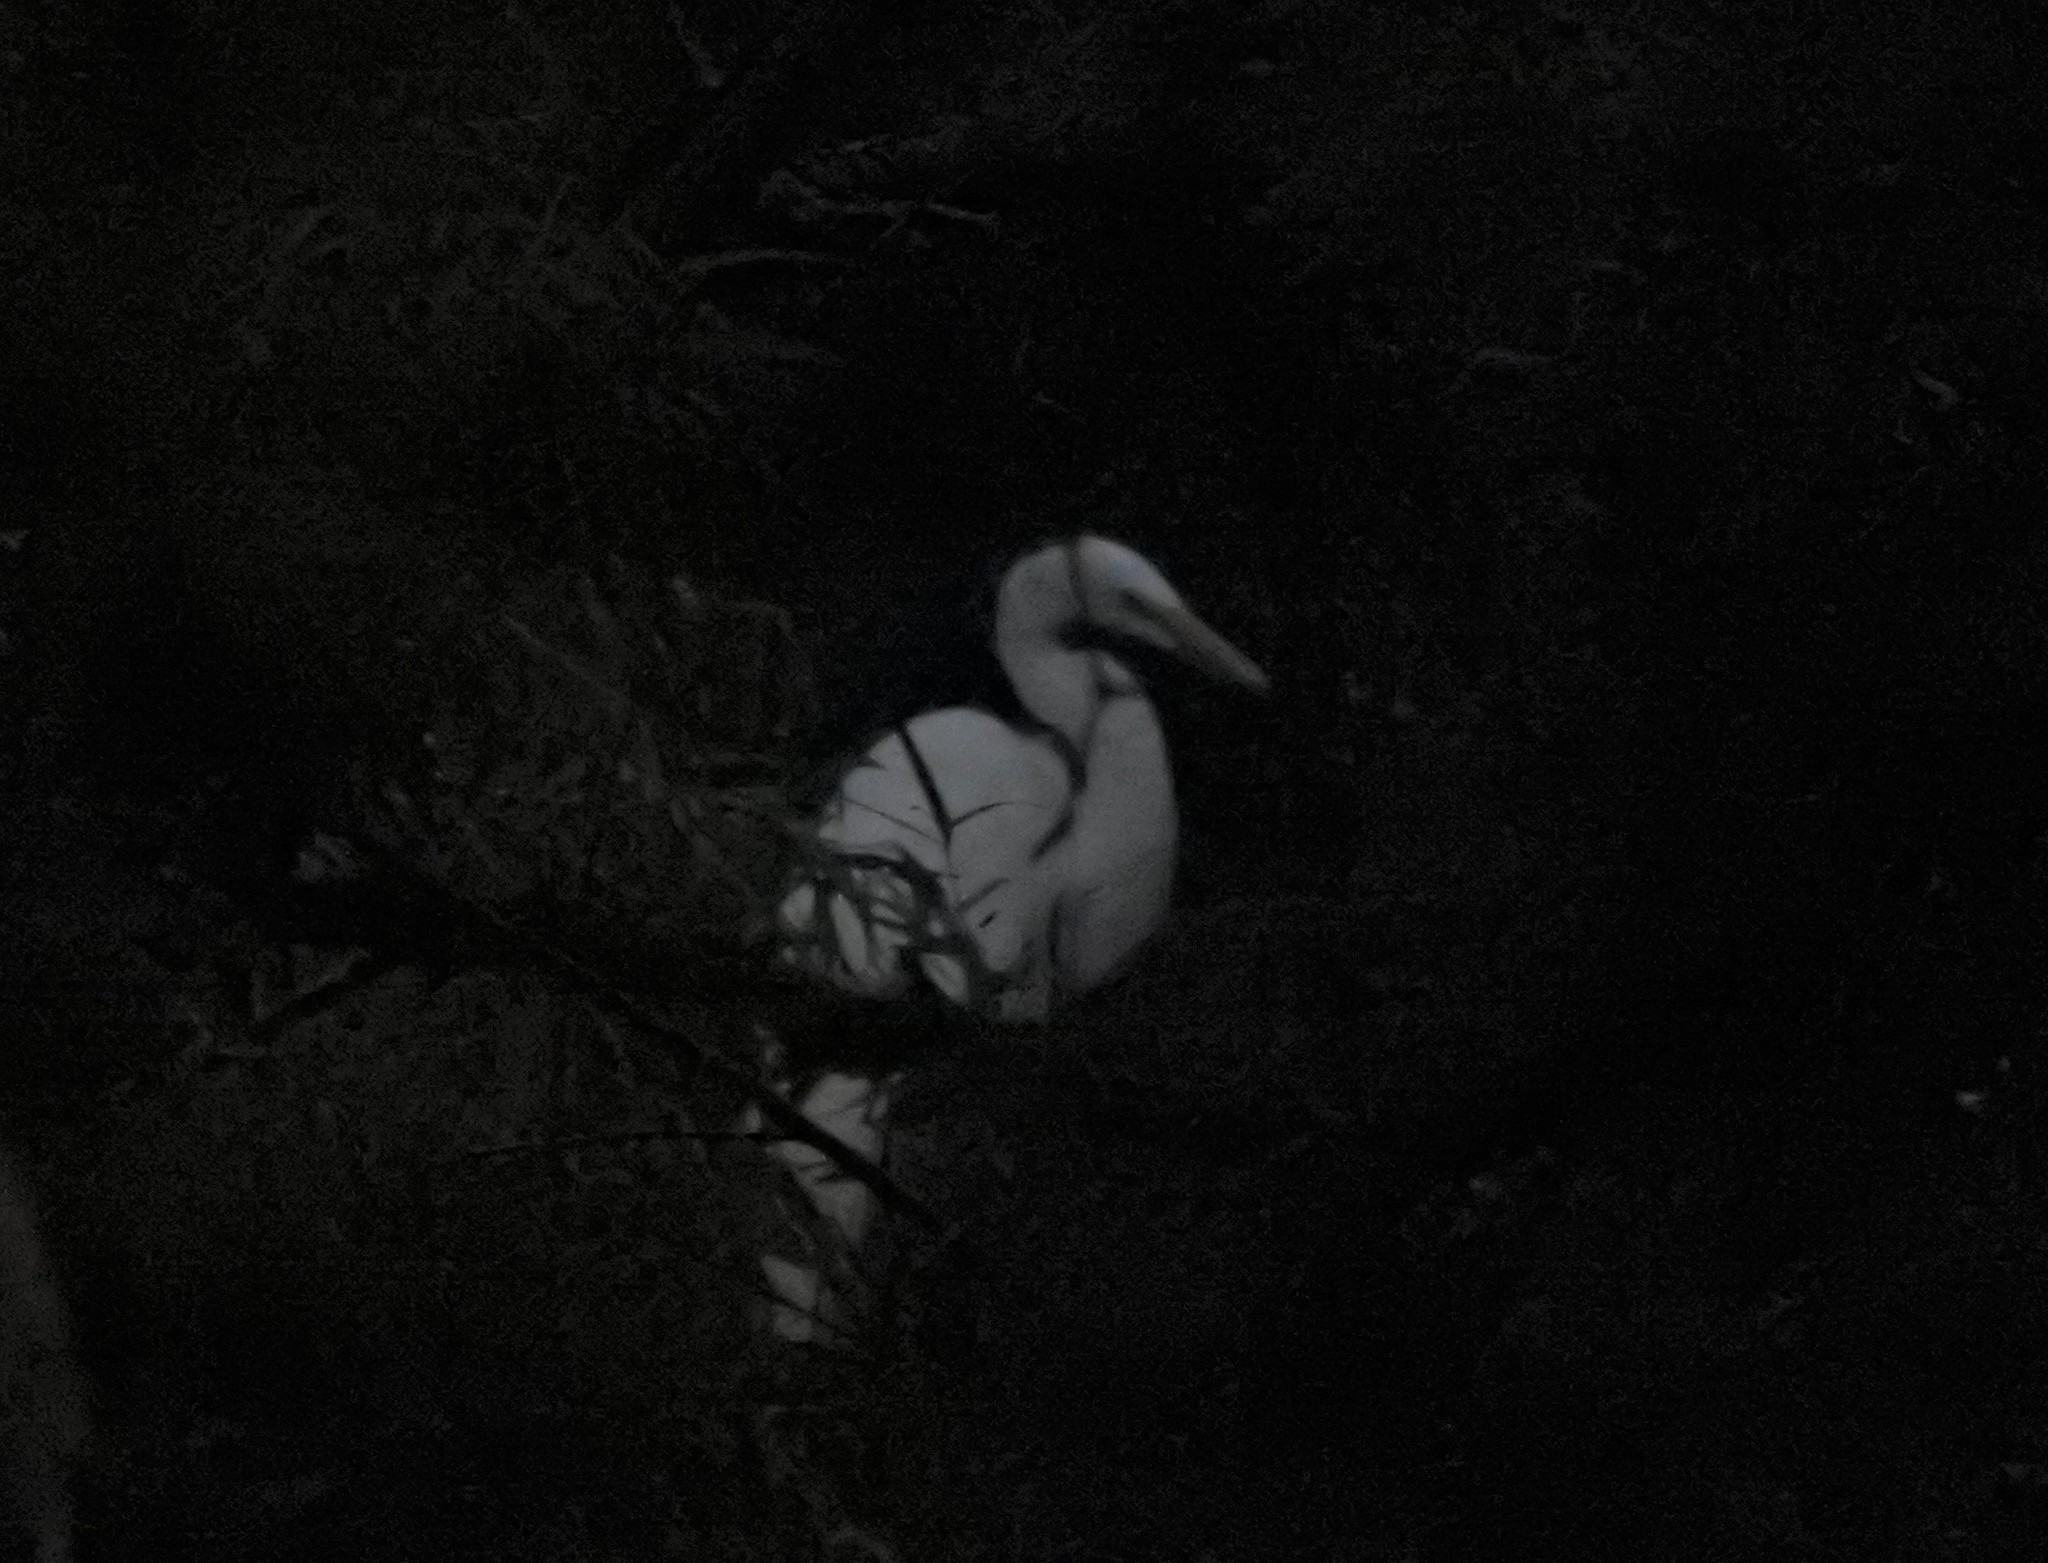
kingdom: Animalia
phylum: Chordata
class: Aves
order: Pelecaniformes
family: Ardeidae
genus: Ardea
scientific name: Ardea alba
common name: Great egret
